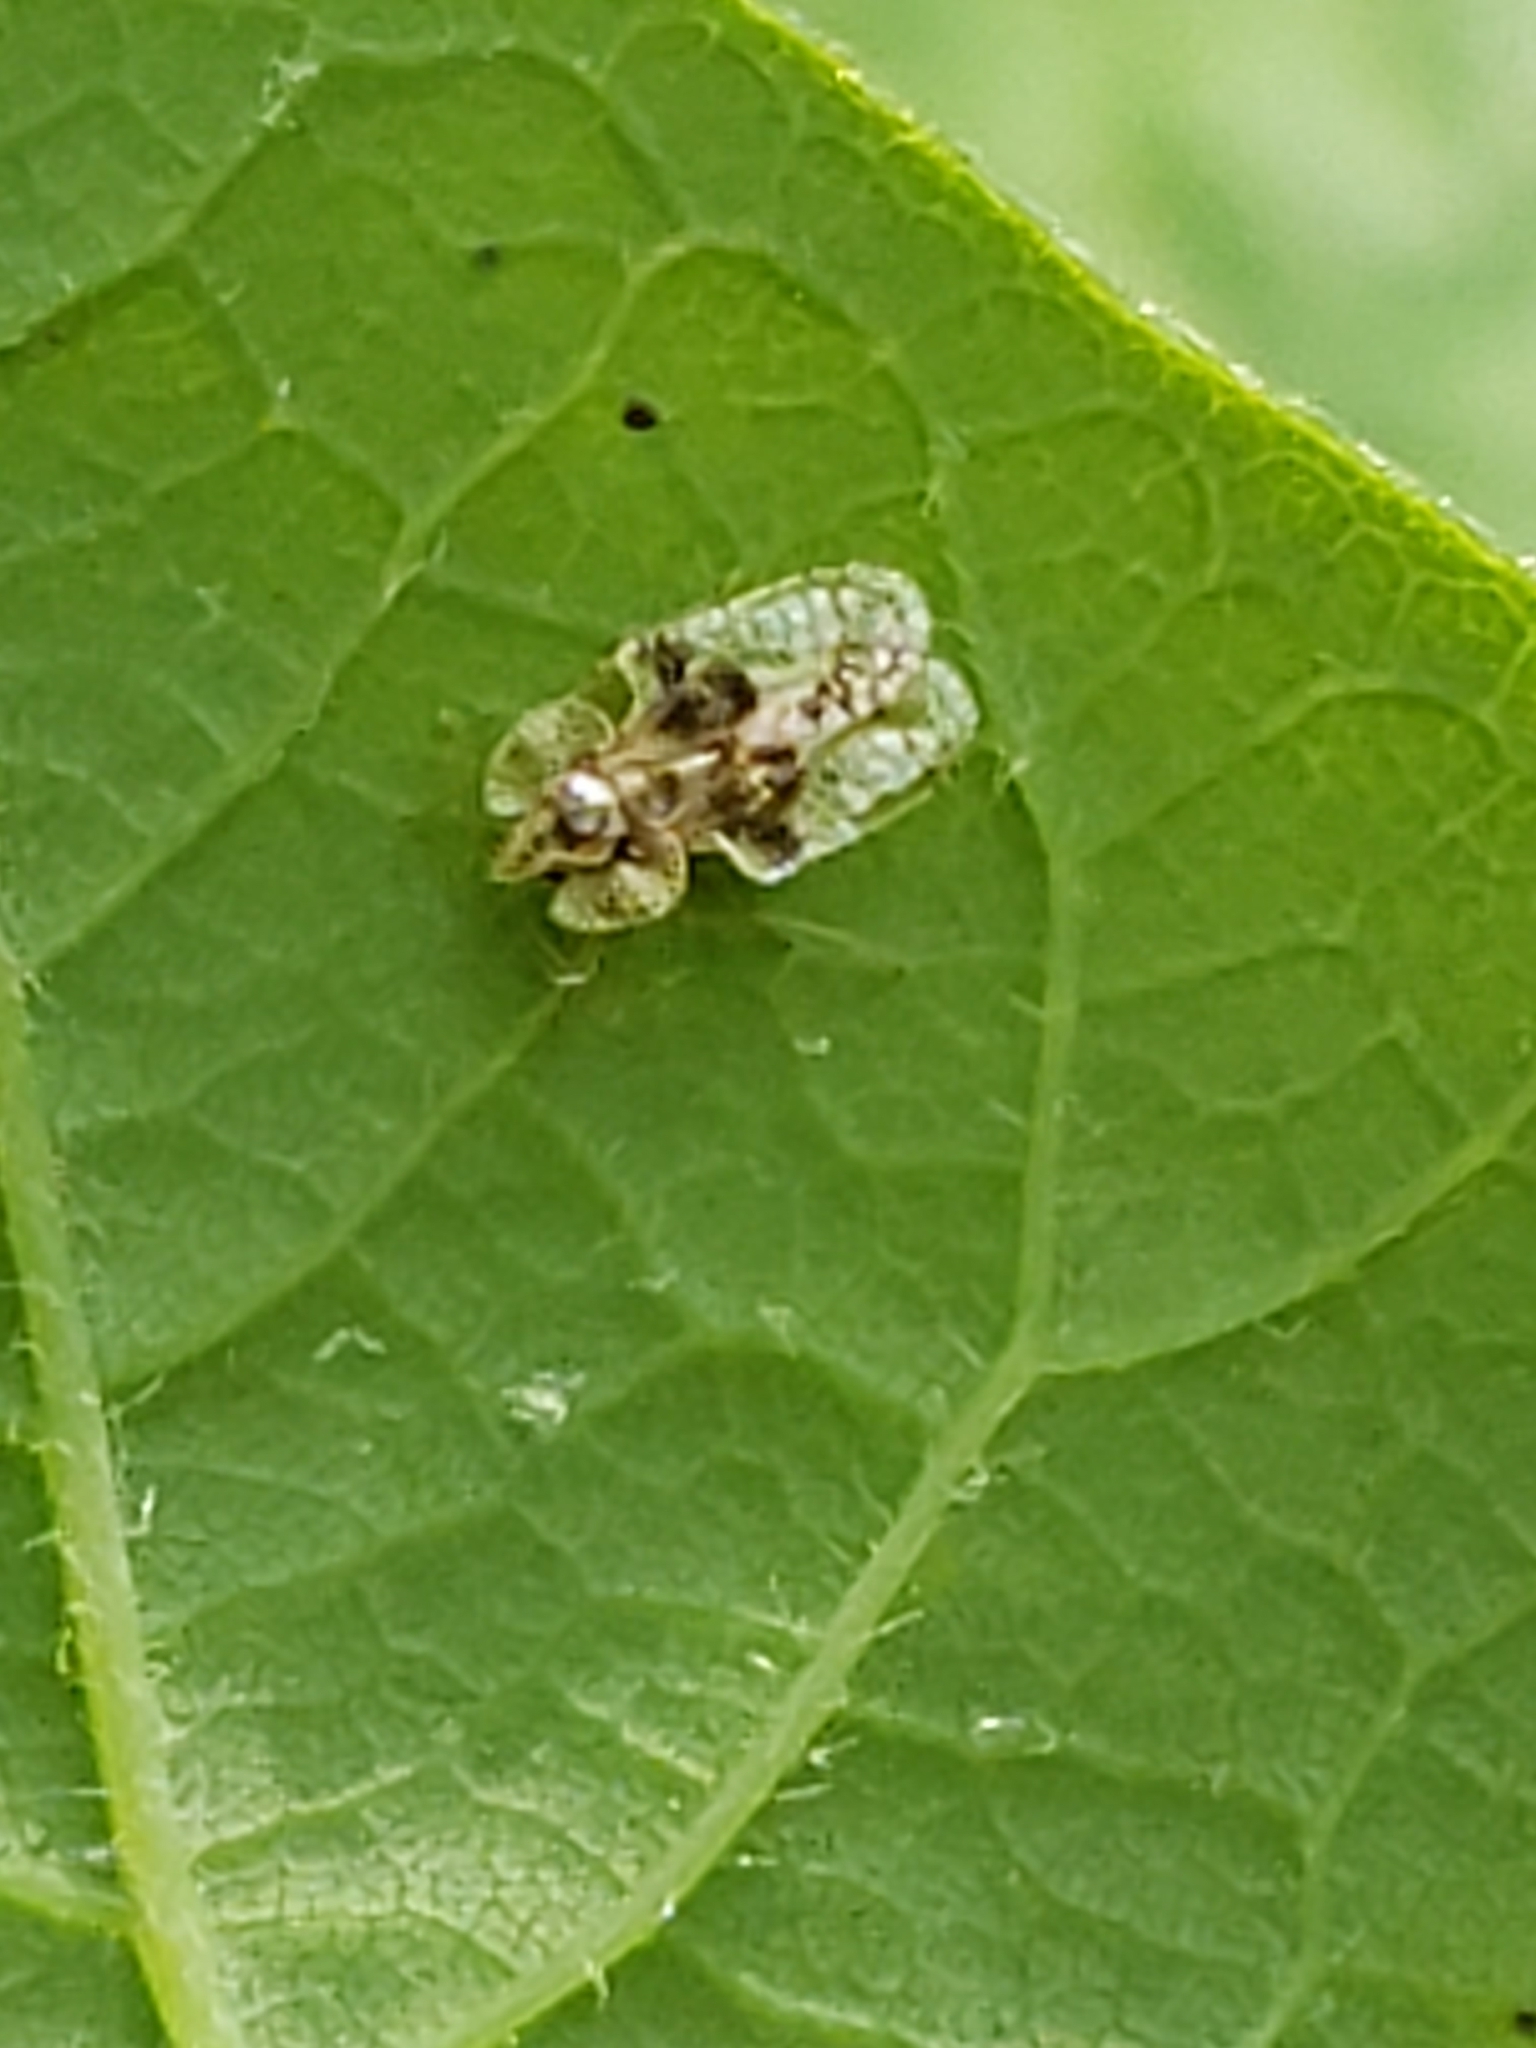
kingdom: Animalia
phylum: Arthropoda
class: Insecta
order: Hemiptera
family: Tingidae
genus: Corythucha
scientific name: Corythucha arcuata
